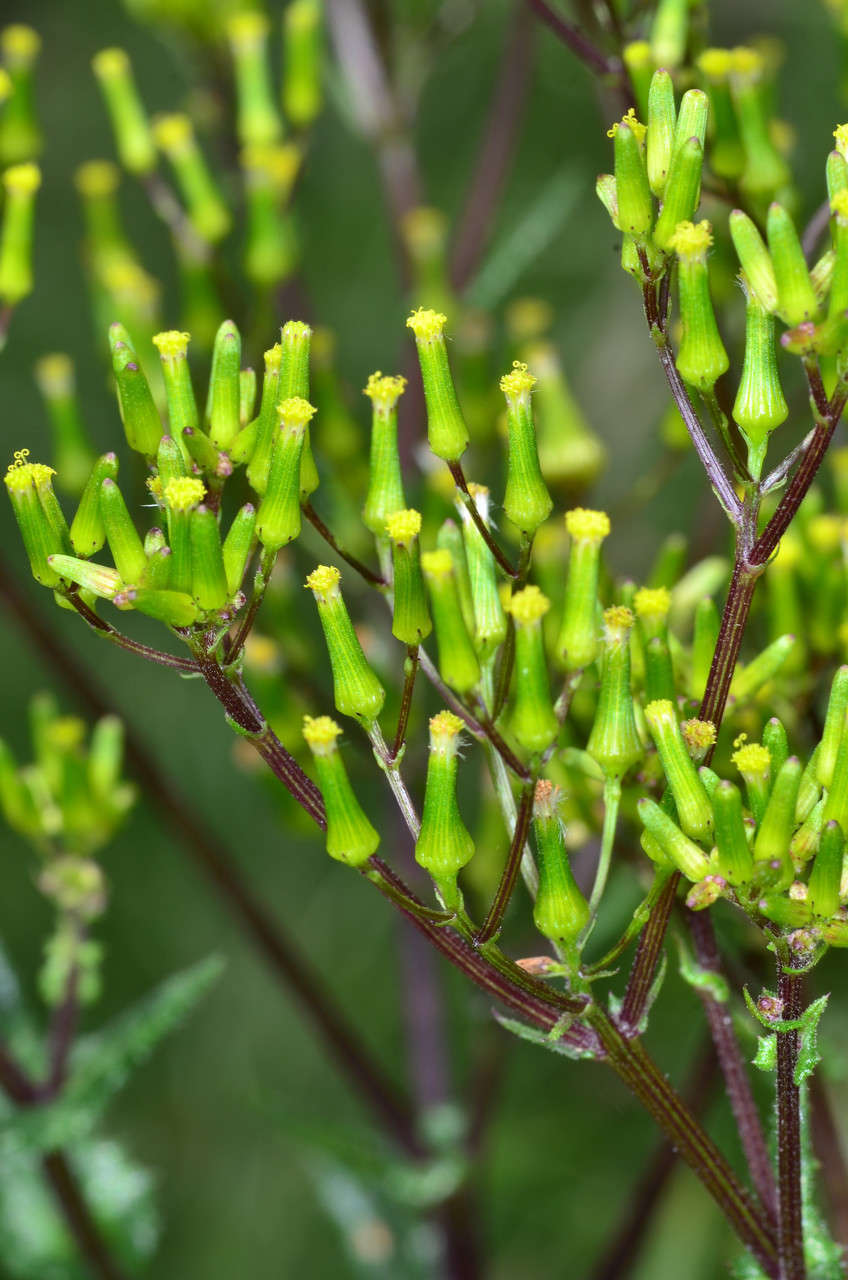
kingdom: Plantae
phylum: Tracheophyta
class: Magnoliopsida
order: Asterales
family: Asteraceae
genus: Senecio
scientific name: Senecio picridioides
